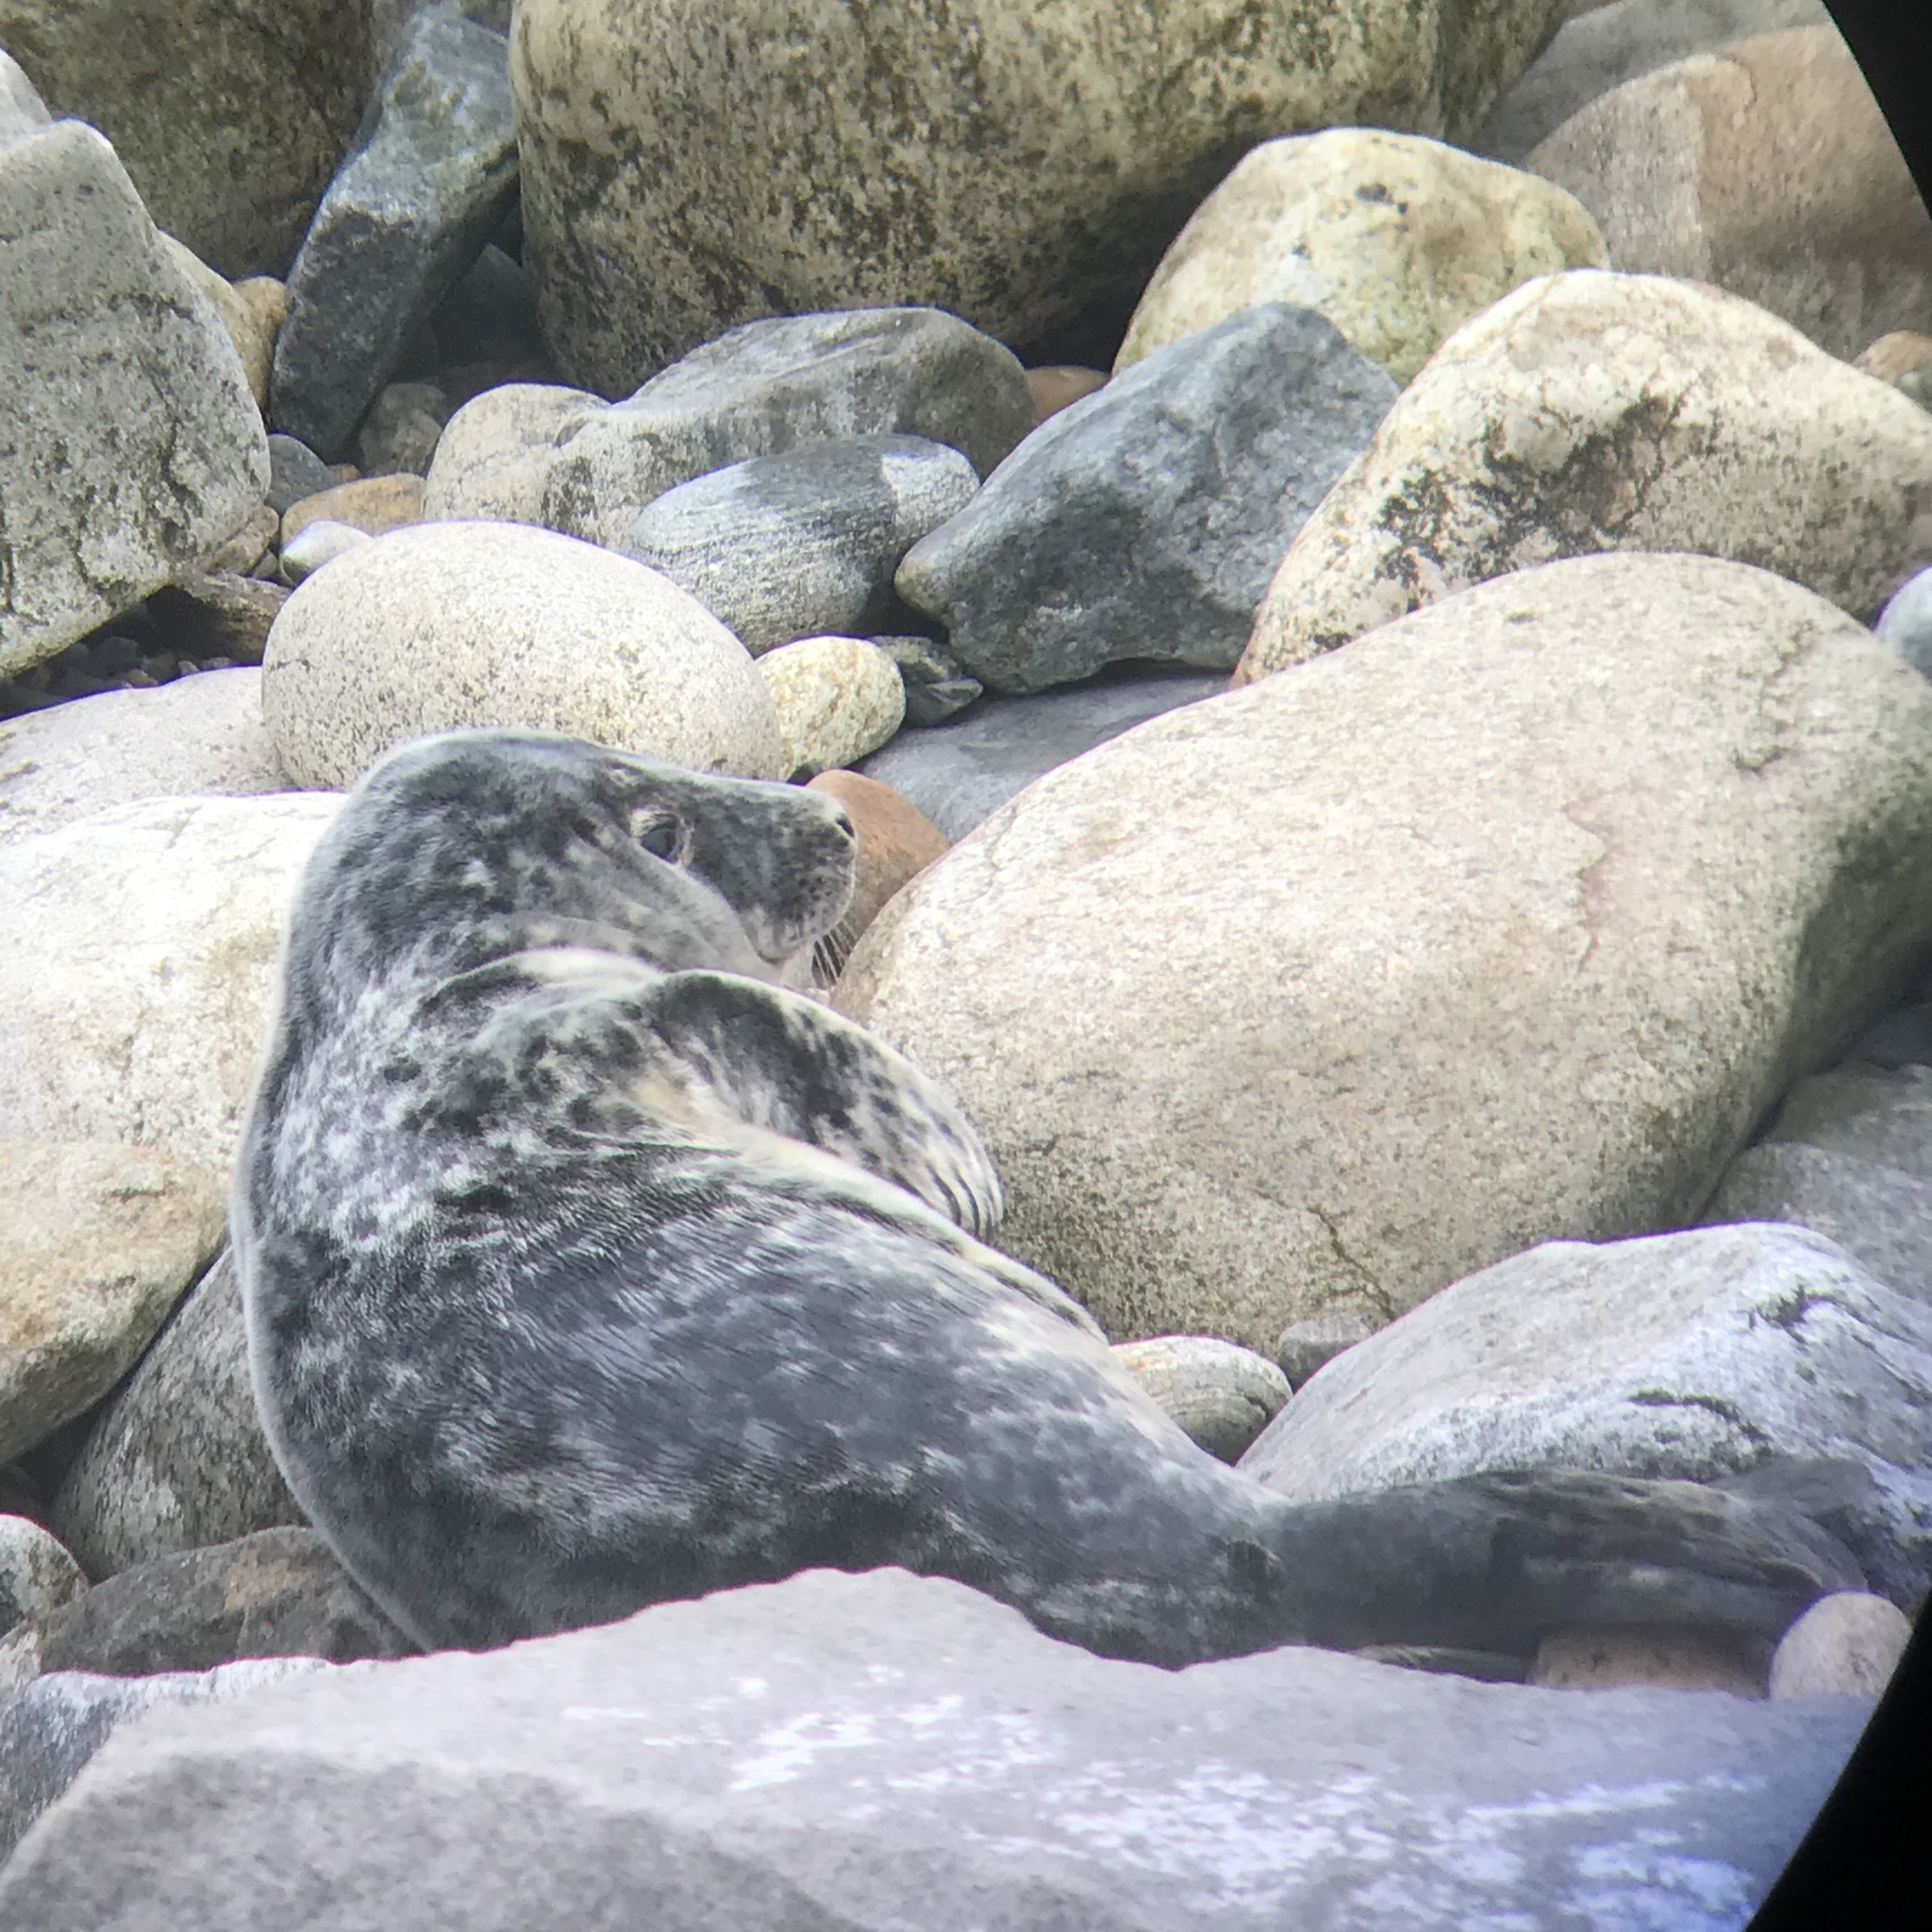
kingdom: Animalia
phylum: Chordata
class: Mammalia
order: Carnivora
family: Phocidae
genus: Halichoerus
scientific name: Halichoerus grypus
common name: Grey seal
